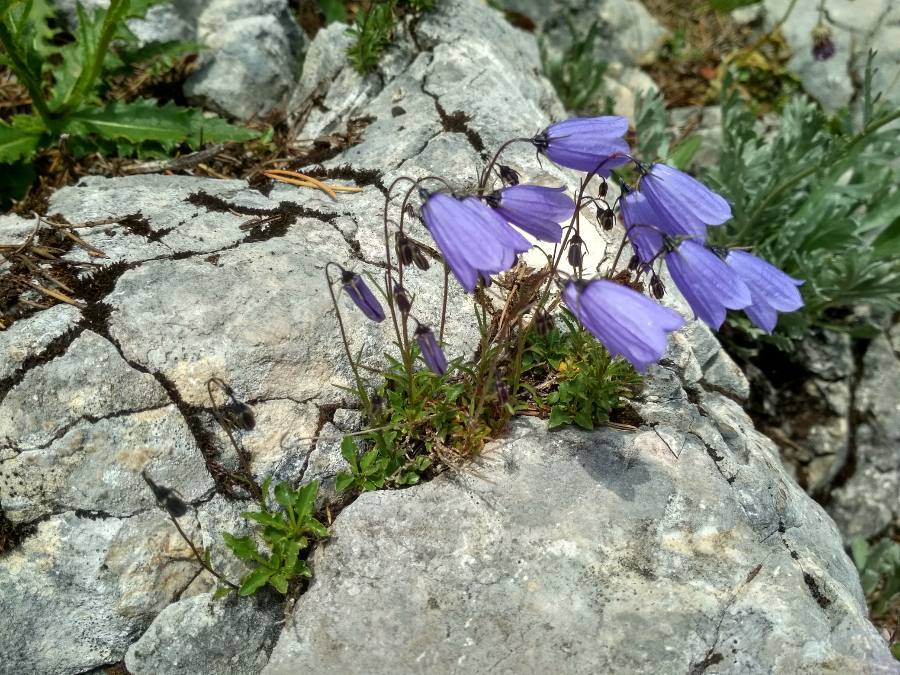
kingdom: Plantae
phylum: Tracheophyta
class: Magnoliopsida
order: Asterales
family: Campanulaceae
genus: Campanula
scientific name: Campanula cochleariifolia
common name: Fairies'-thimbles
